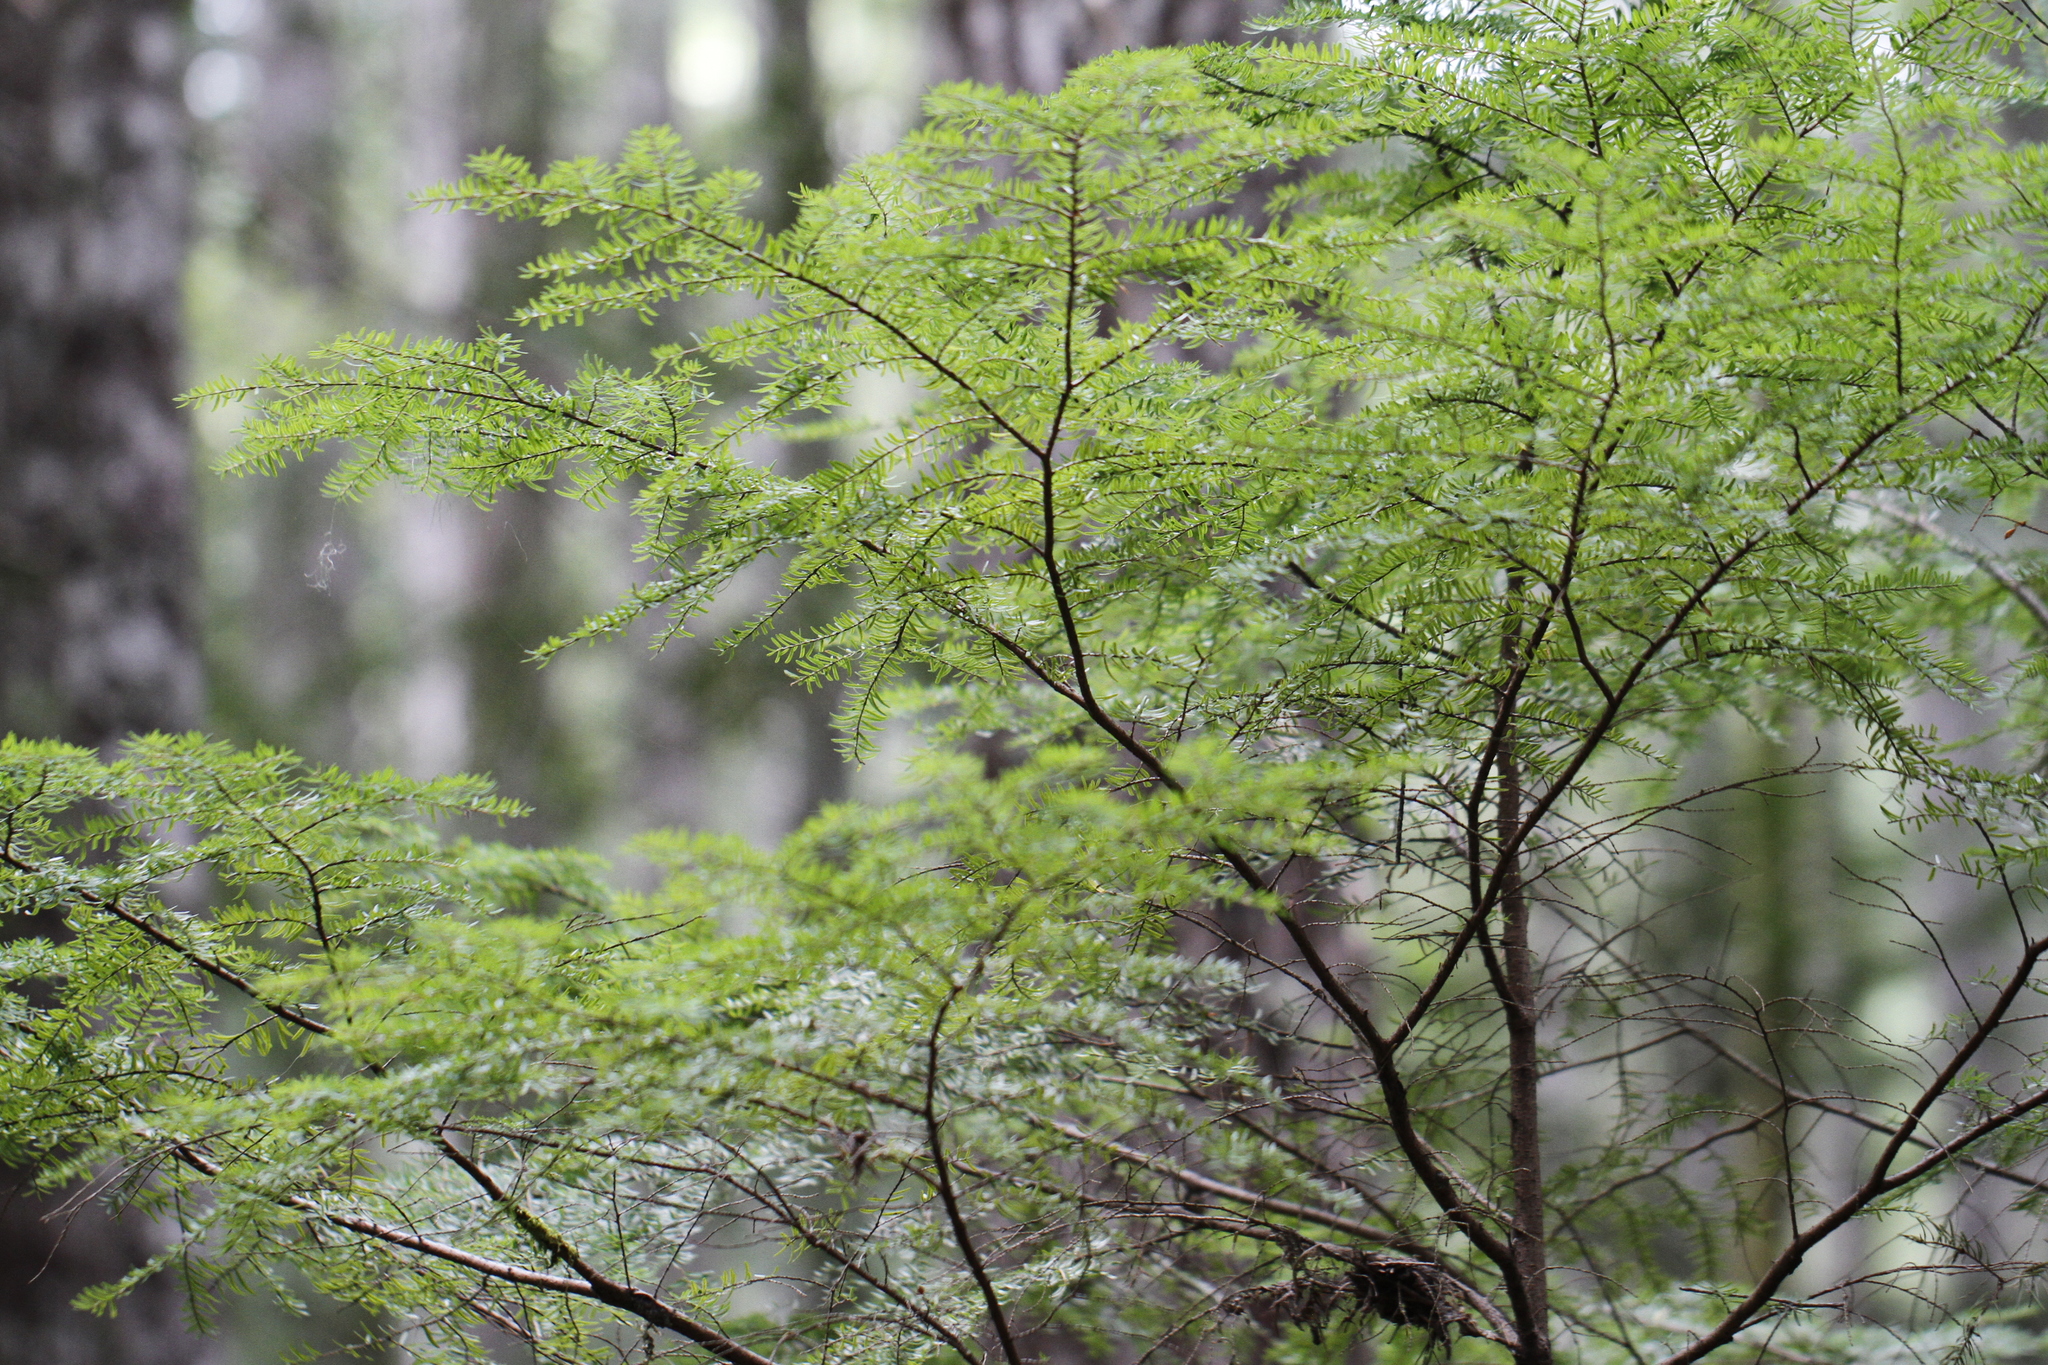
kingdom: Plantae
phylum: Tracheophyta
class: Pinopsida
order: Pinales
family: Pinaceae
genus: Tsuga
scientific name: Tsuga heterophylla
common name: Western hemlock
